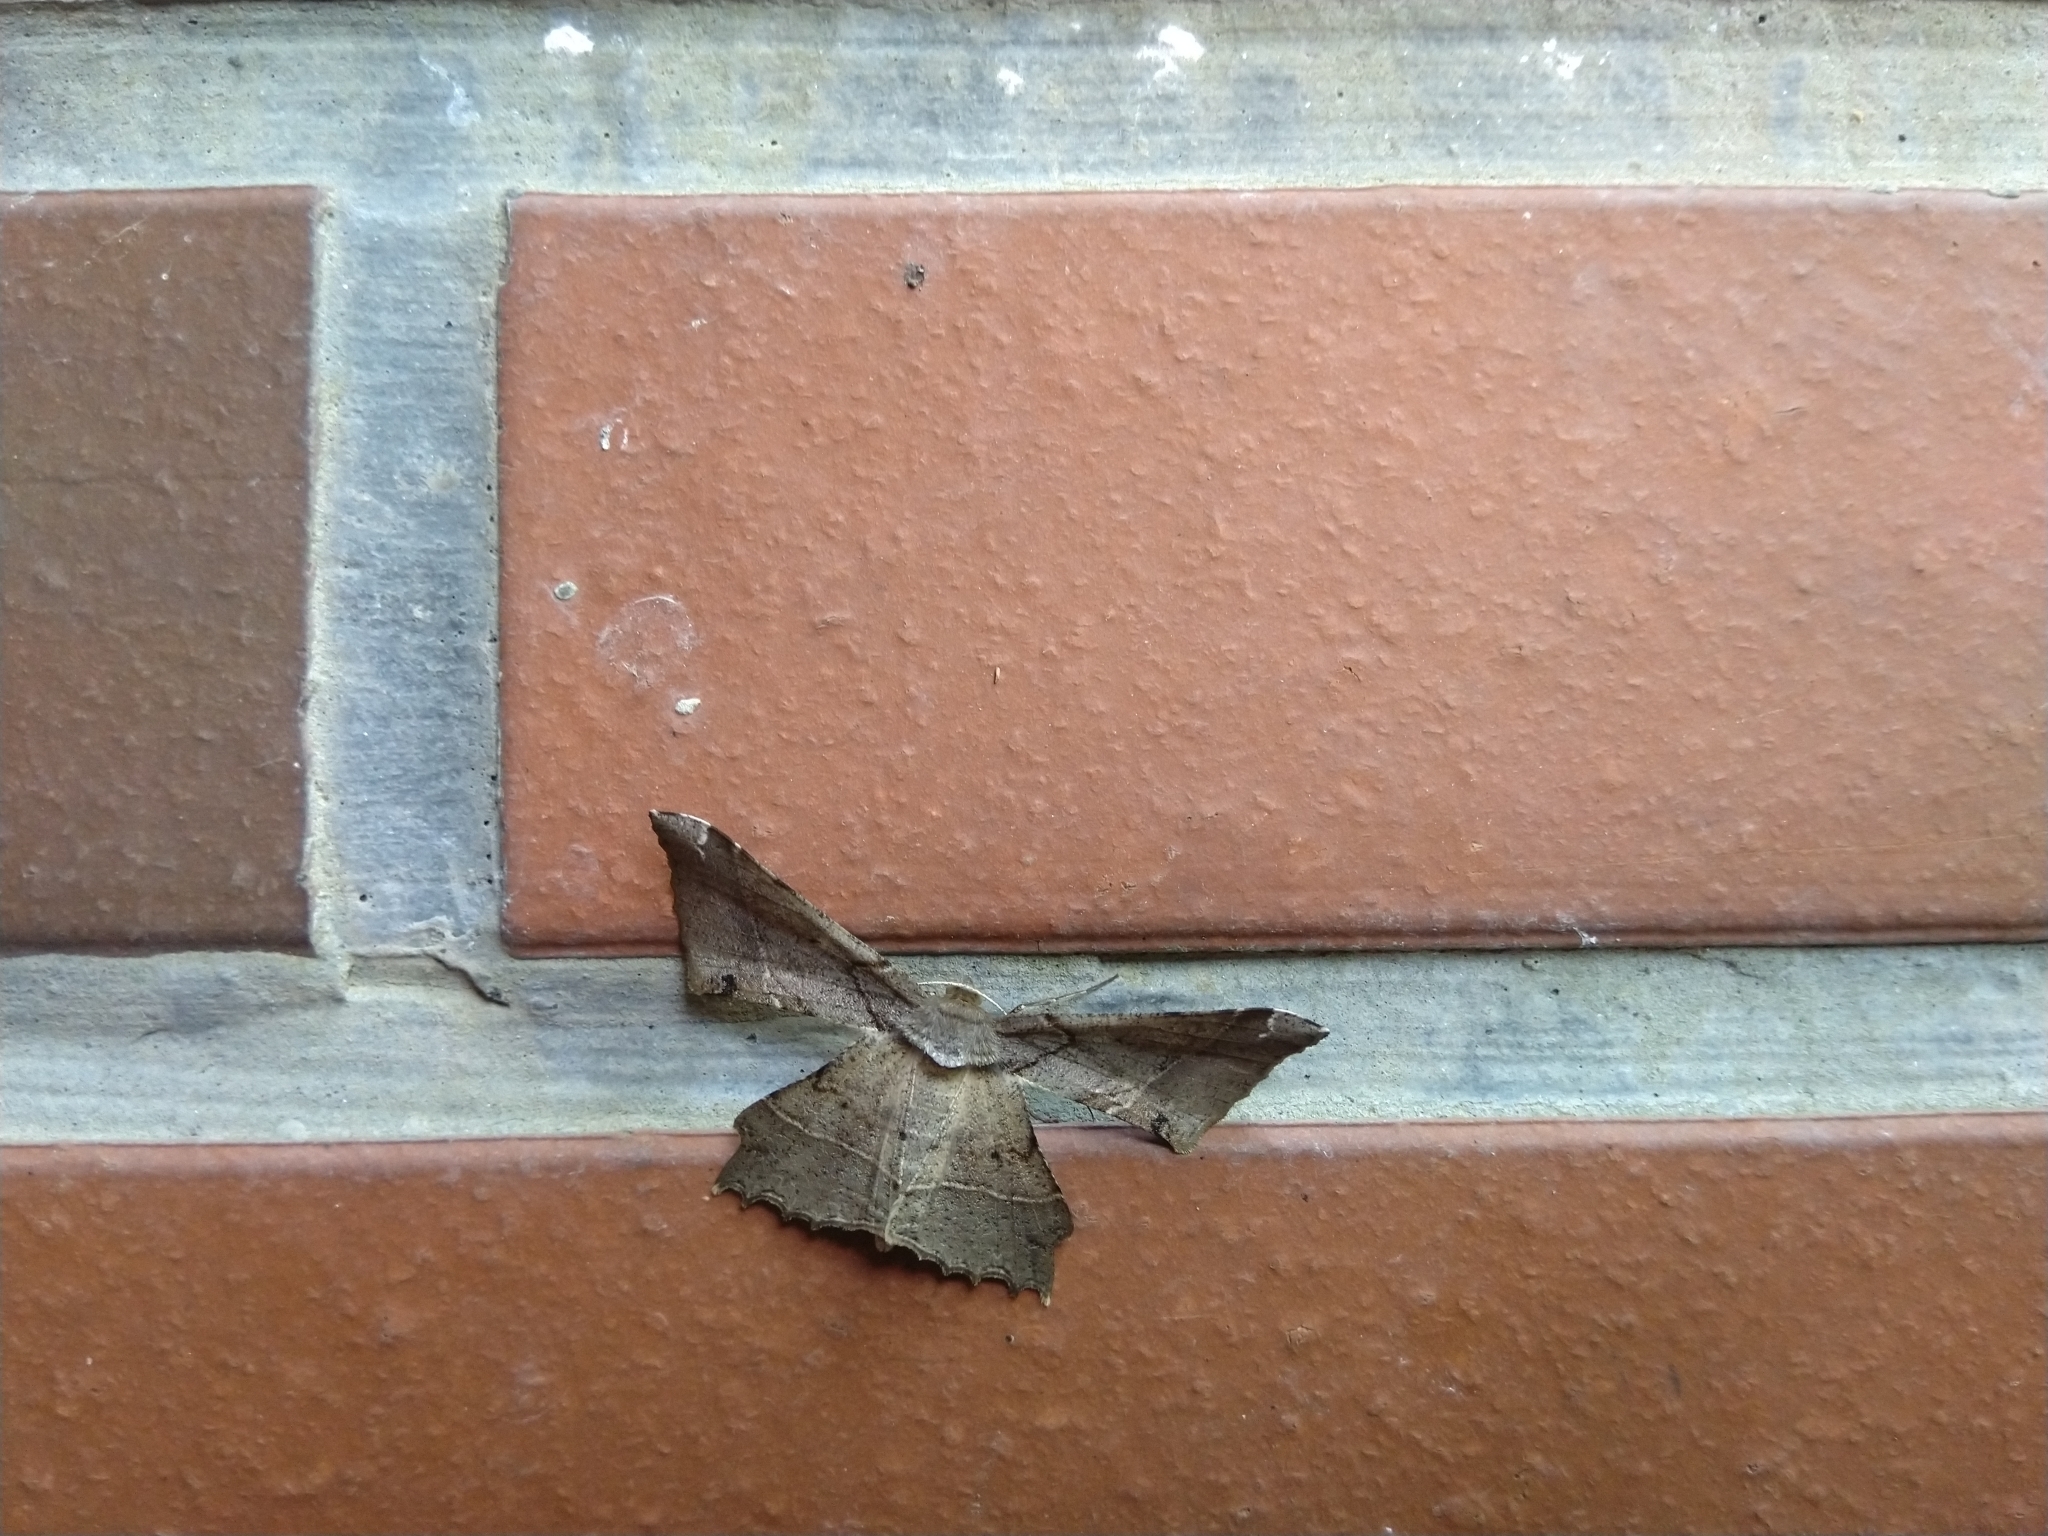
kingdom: Animalia
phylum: Arthropoda
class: Insecta
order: Lepidoptera
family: Geometridae
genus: Krananda
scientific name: Krananda latimarginaria
